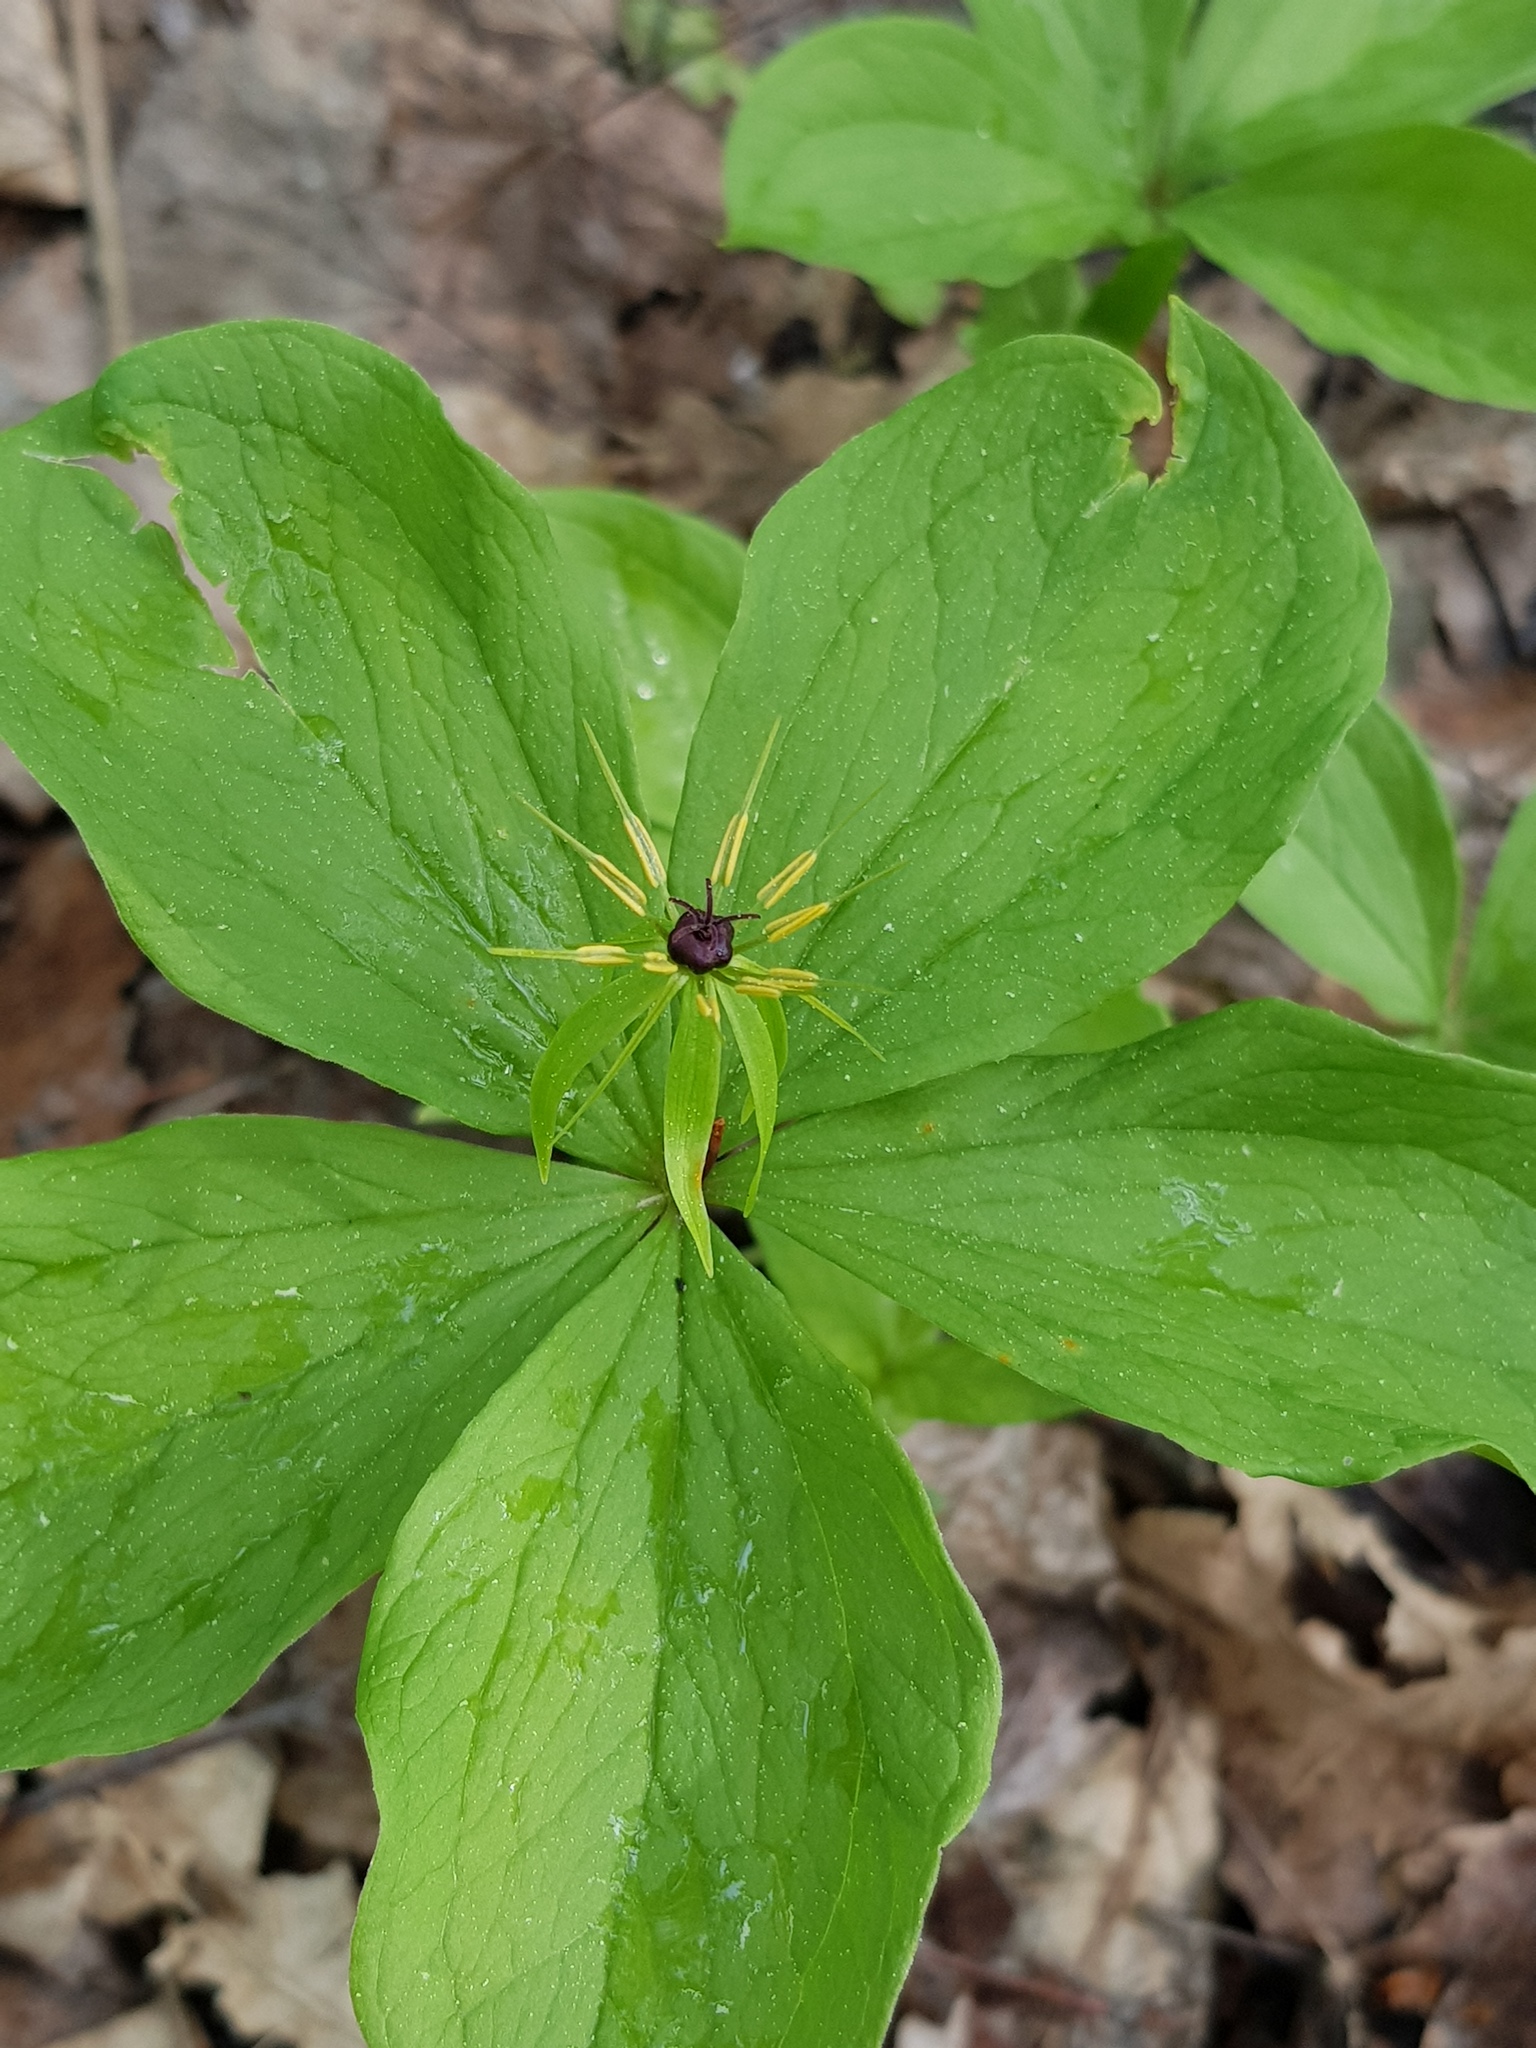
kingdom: Plantae
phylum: Tracheophyta
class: Liliopsida
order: Liliales
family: Melanthiaceae
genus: Paris
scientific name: Paris quadrifolia
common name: Herb-paris
